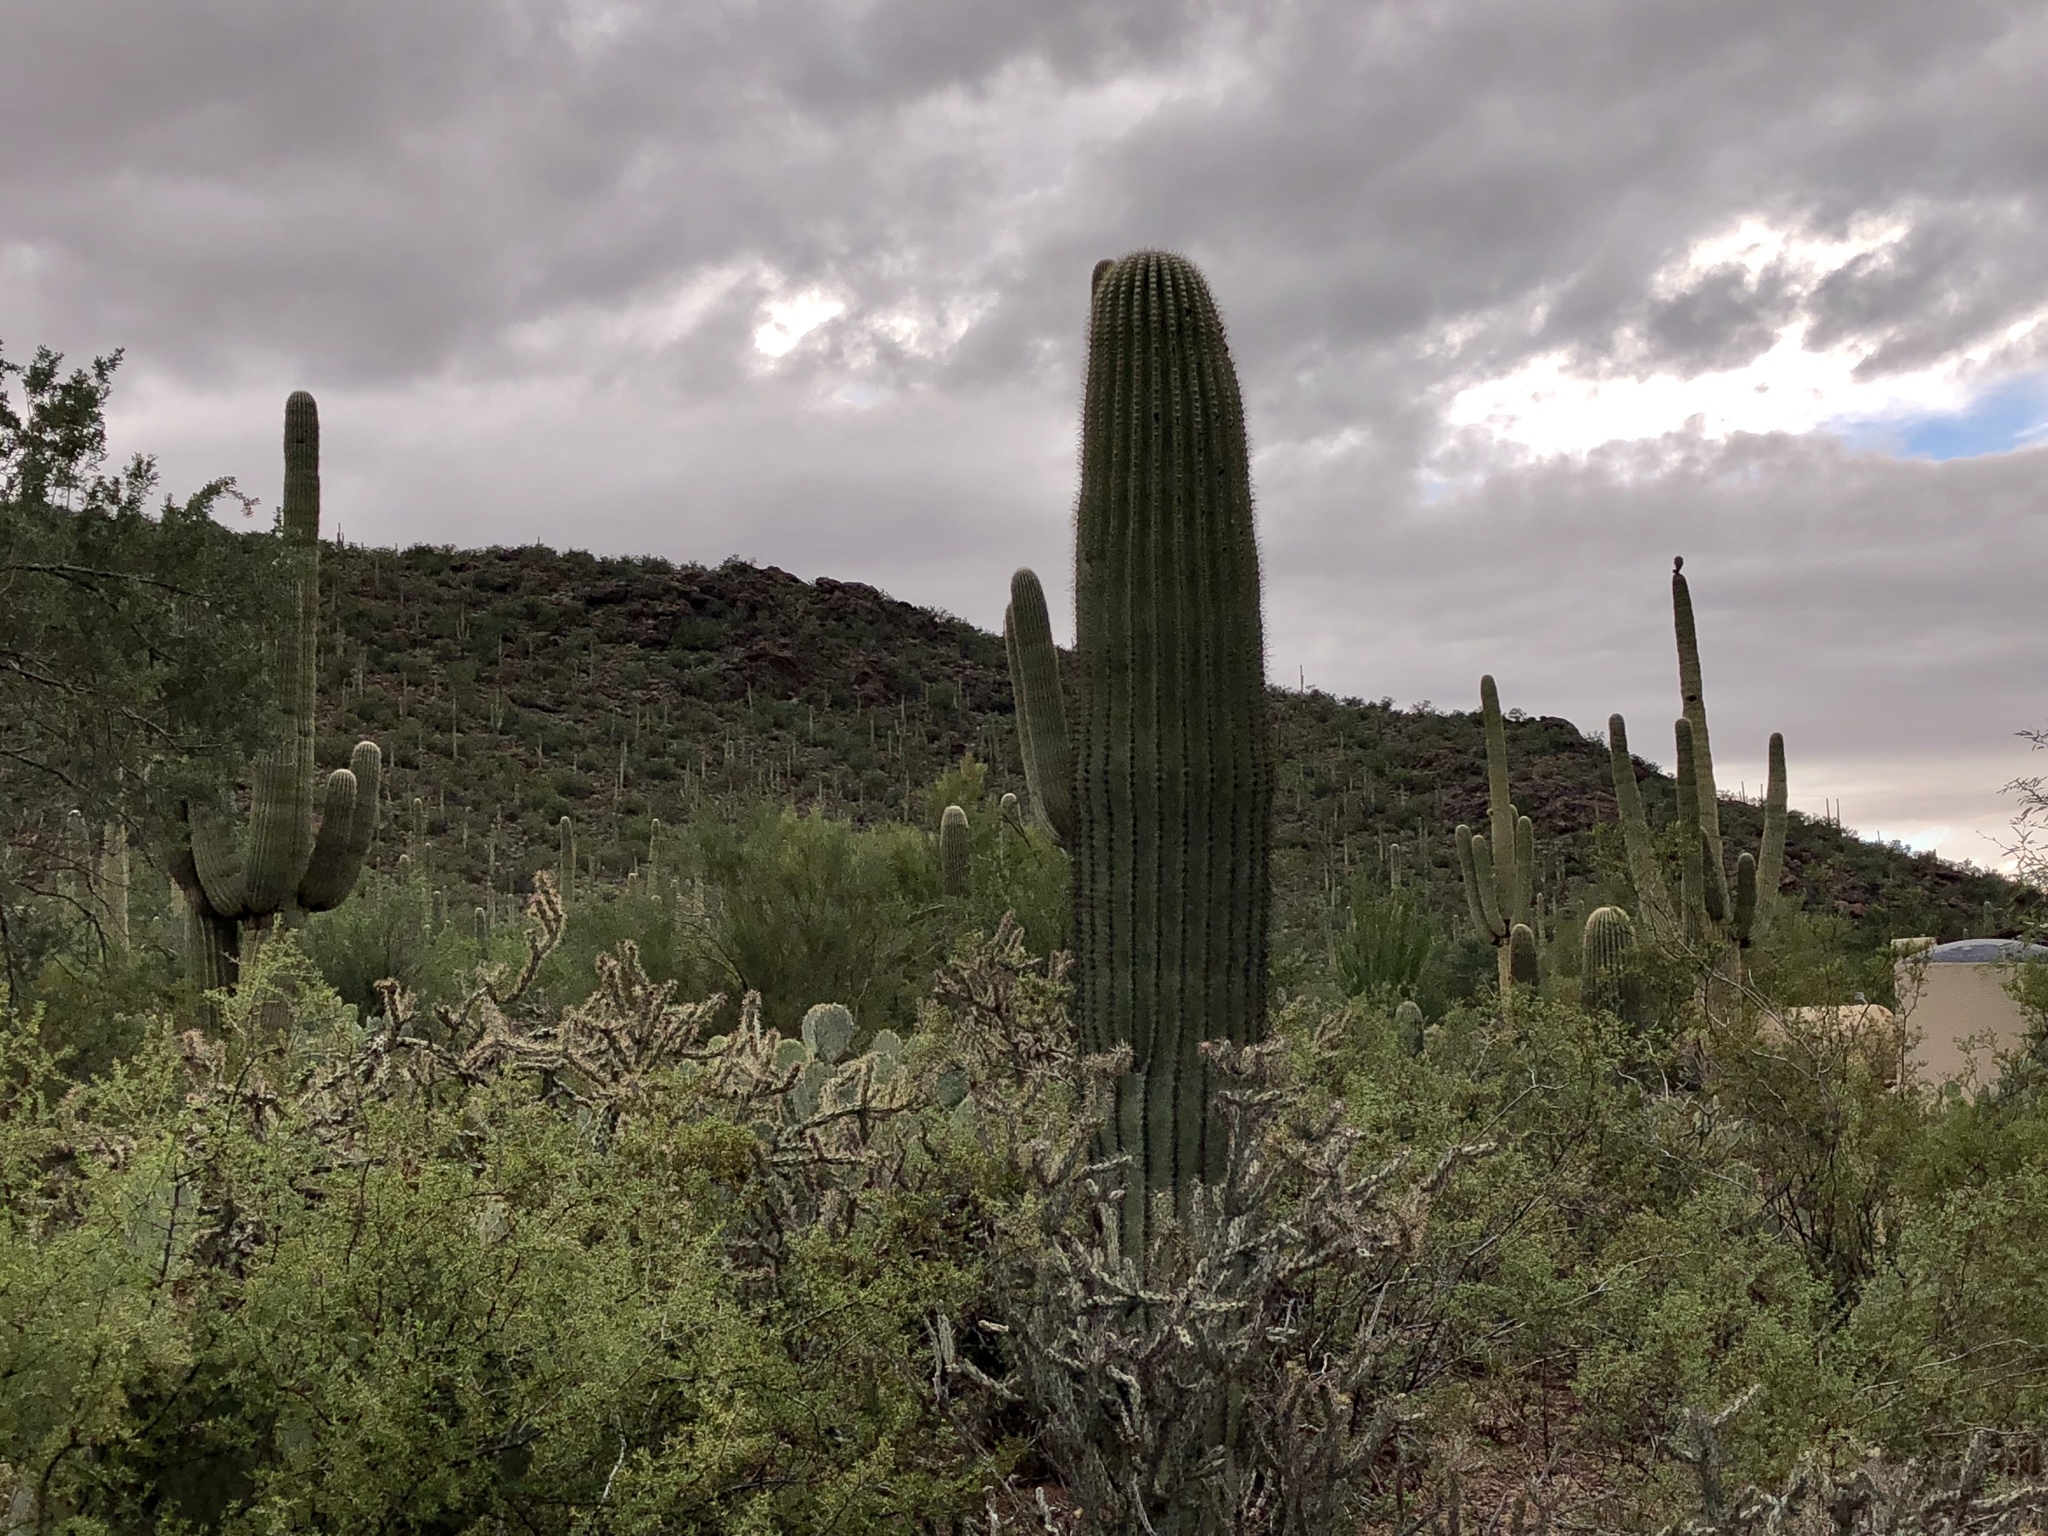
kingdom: Plantae
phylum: Tracheophyta
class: Magnoliopsida
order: Caryophyllales
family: Cactaceae
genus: Carnegiea
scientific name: Carnegiea gigantea
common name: Saguaro
